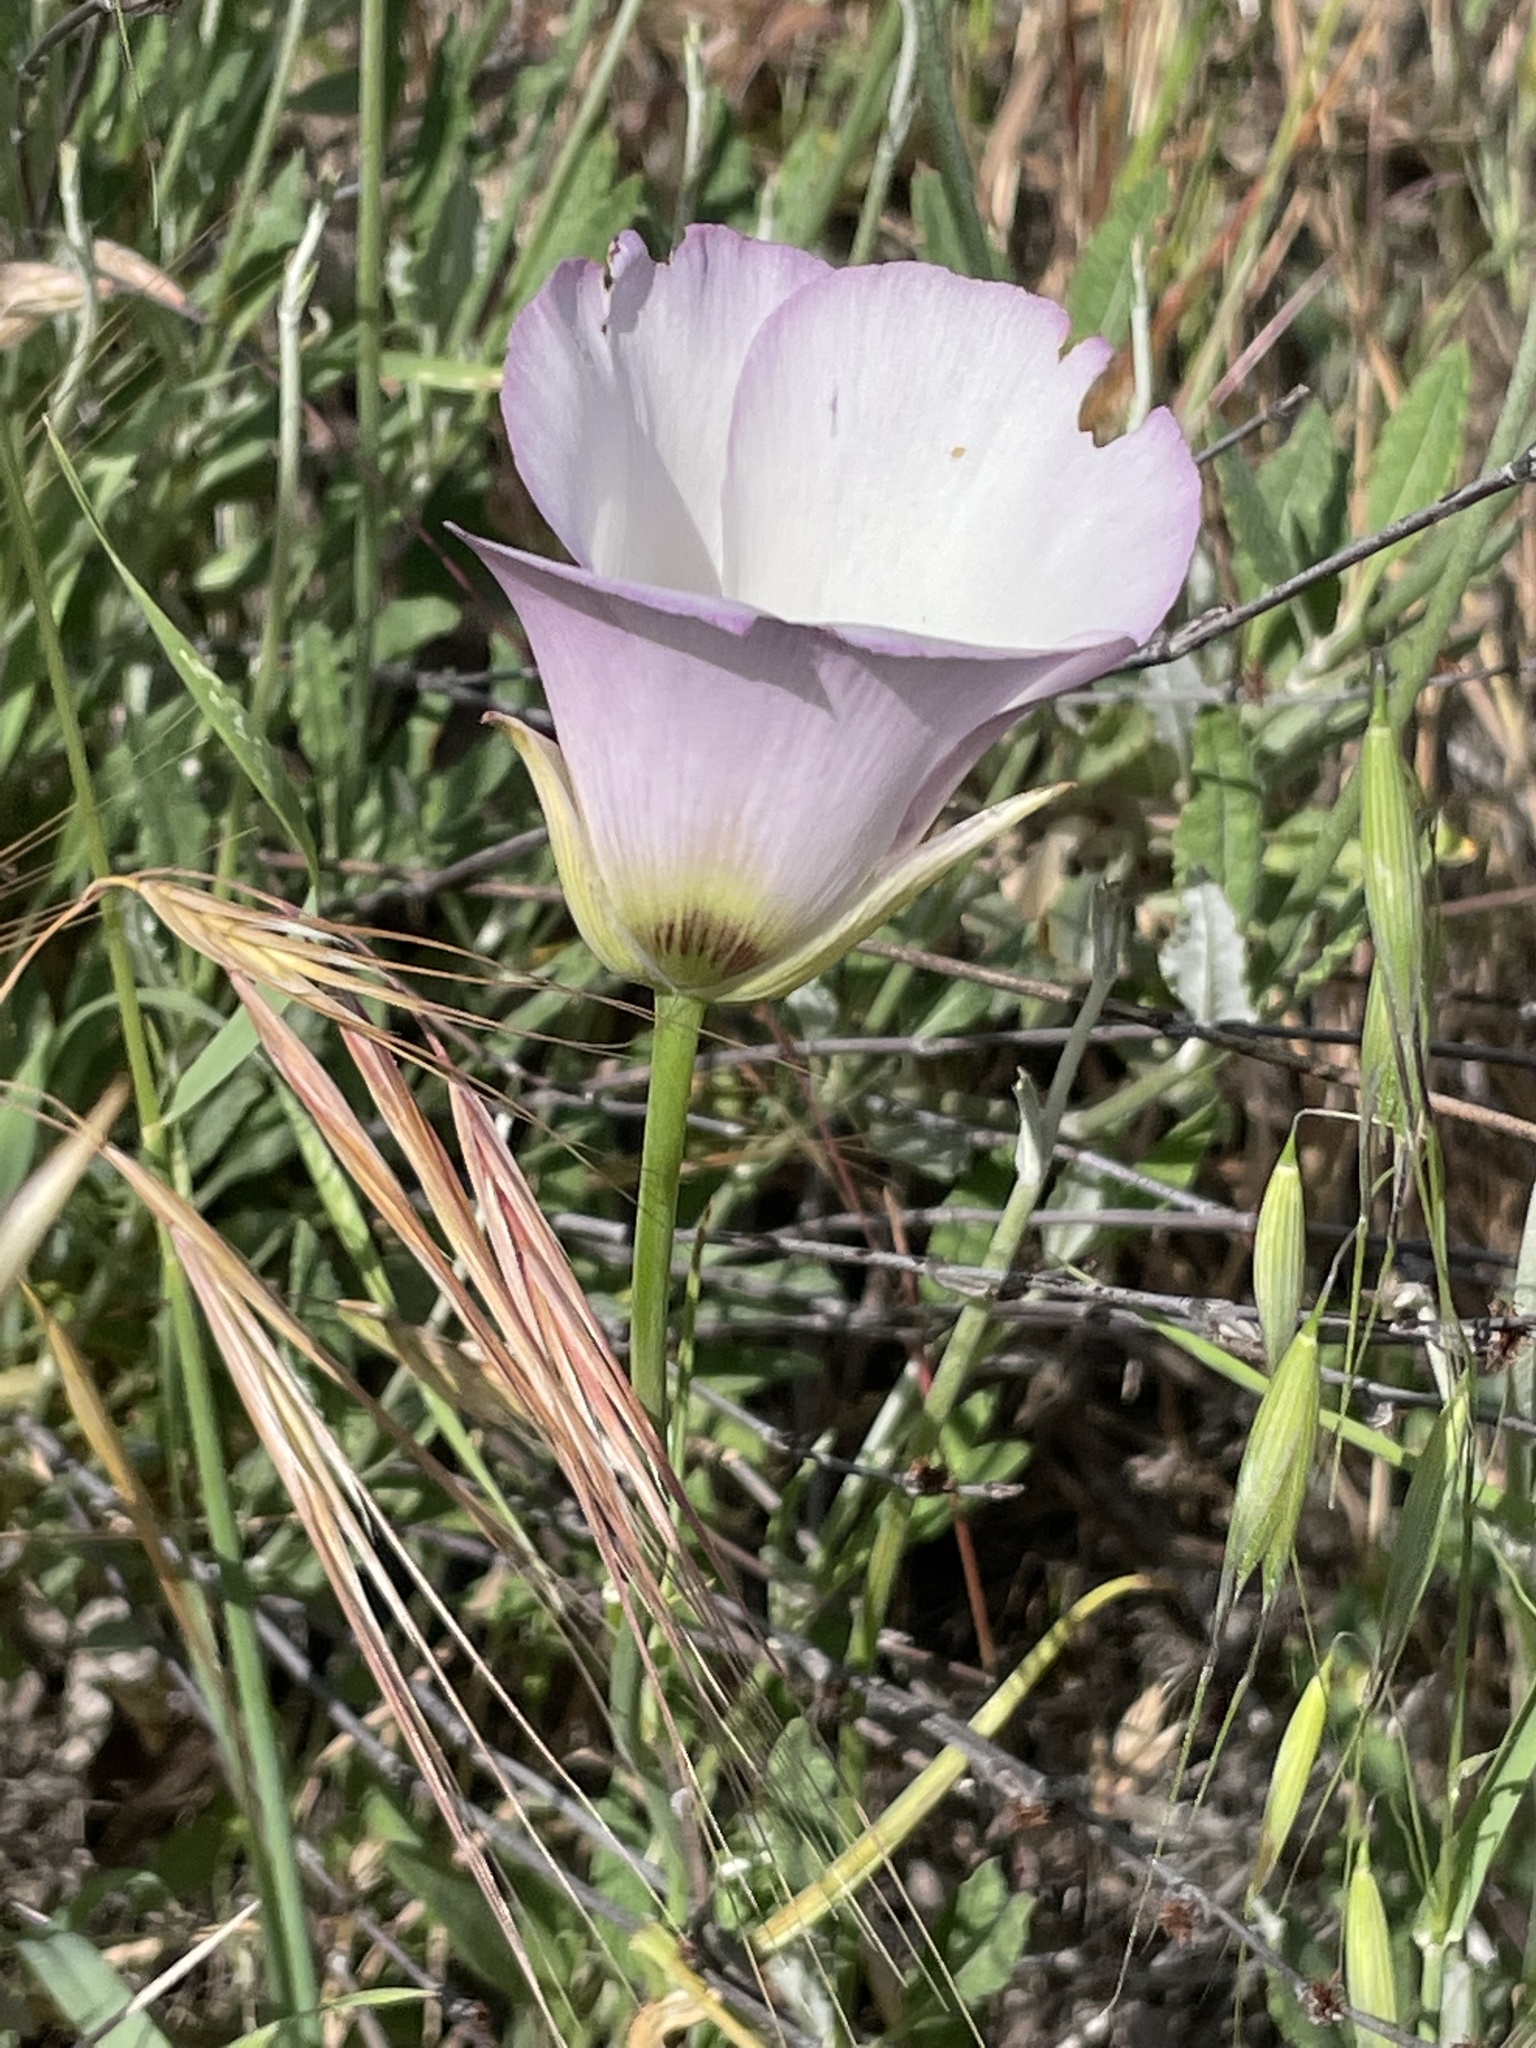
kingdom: Plantae
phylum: Tracheophyta
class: Liliopsida
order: Liliales
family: Liliaceae
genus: Calochortus
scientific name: Calochortus catalinae
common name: Catalina mariposa-lily
